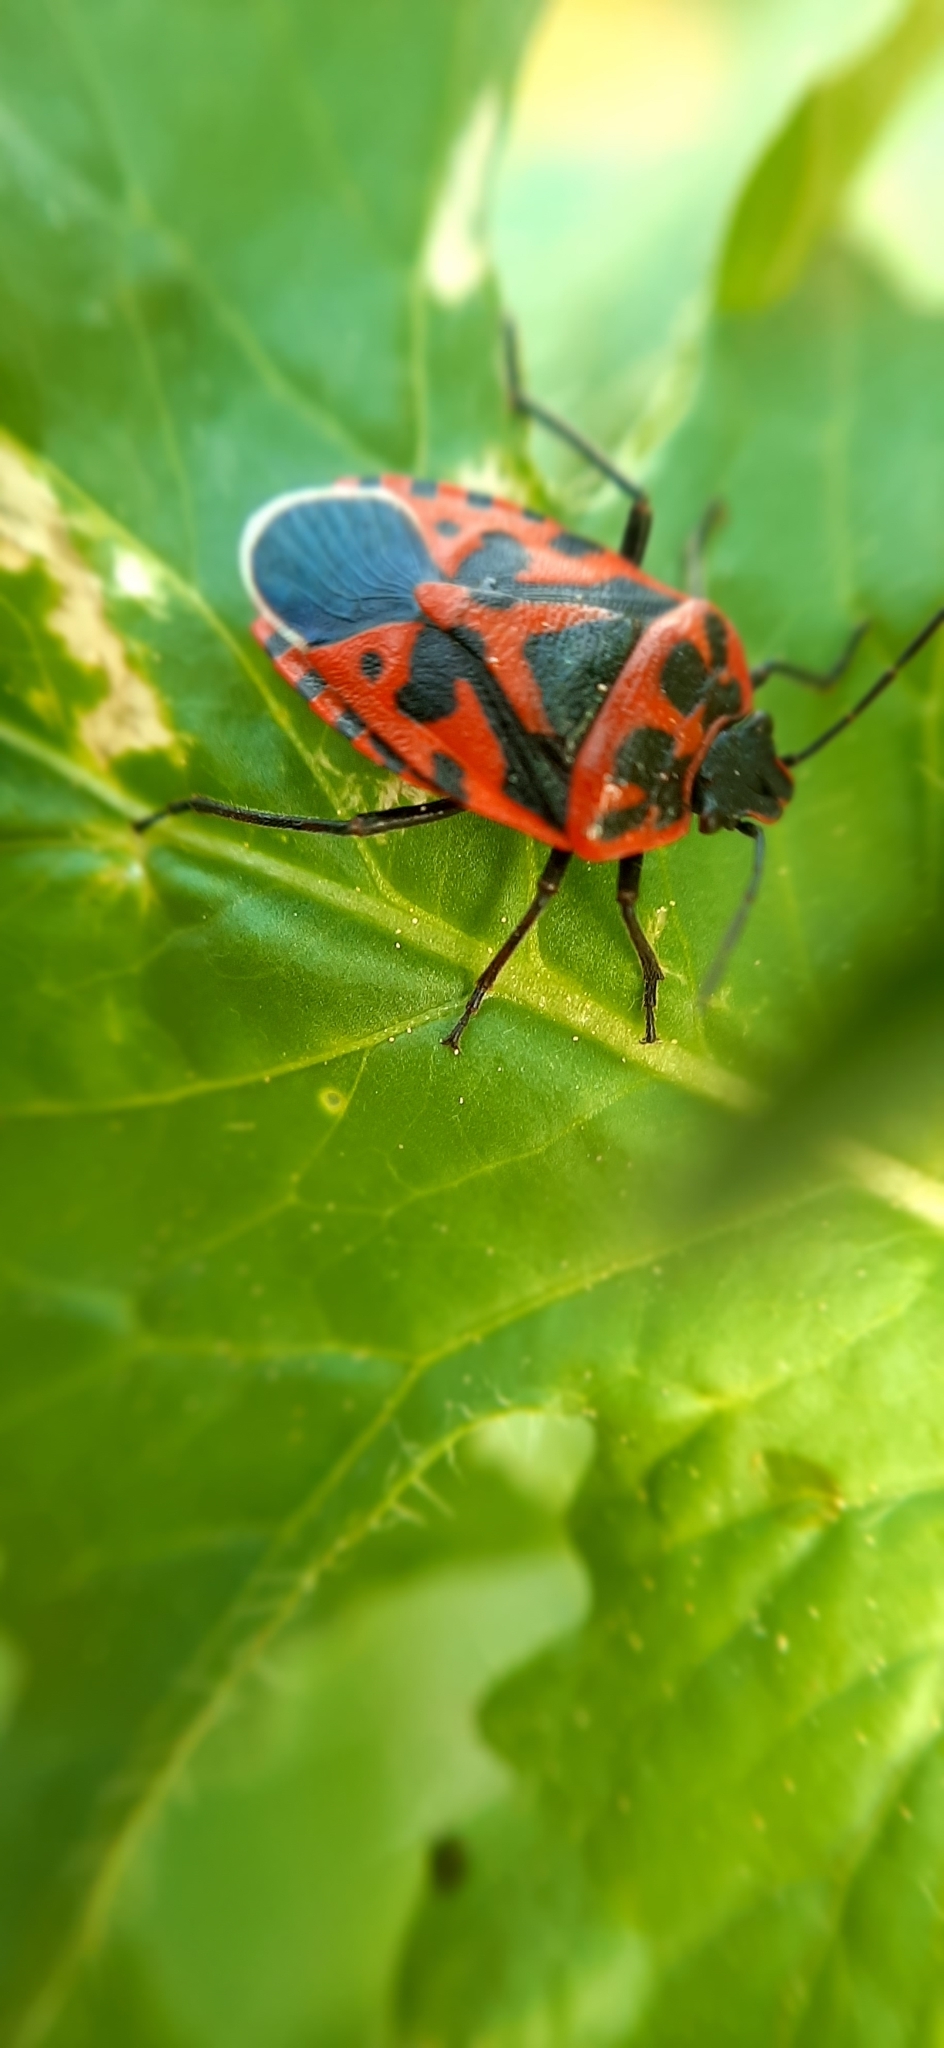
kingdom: Animalia
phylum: Arthropoda
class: Insecta
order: Hemiptera
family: Pentatomidae
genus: Eurydema
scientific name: Eurydema ventralis
